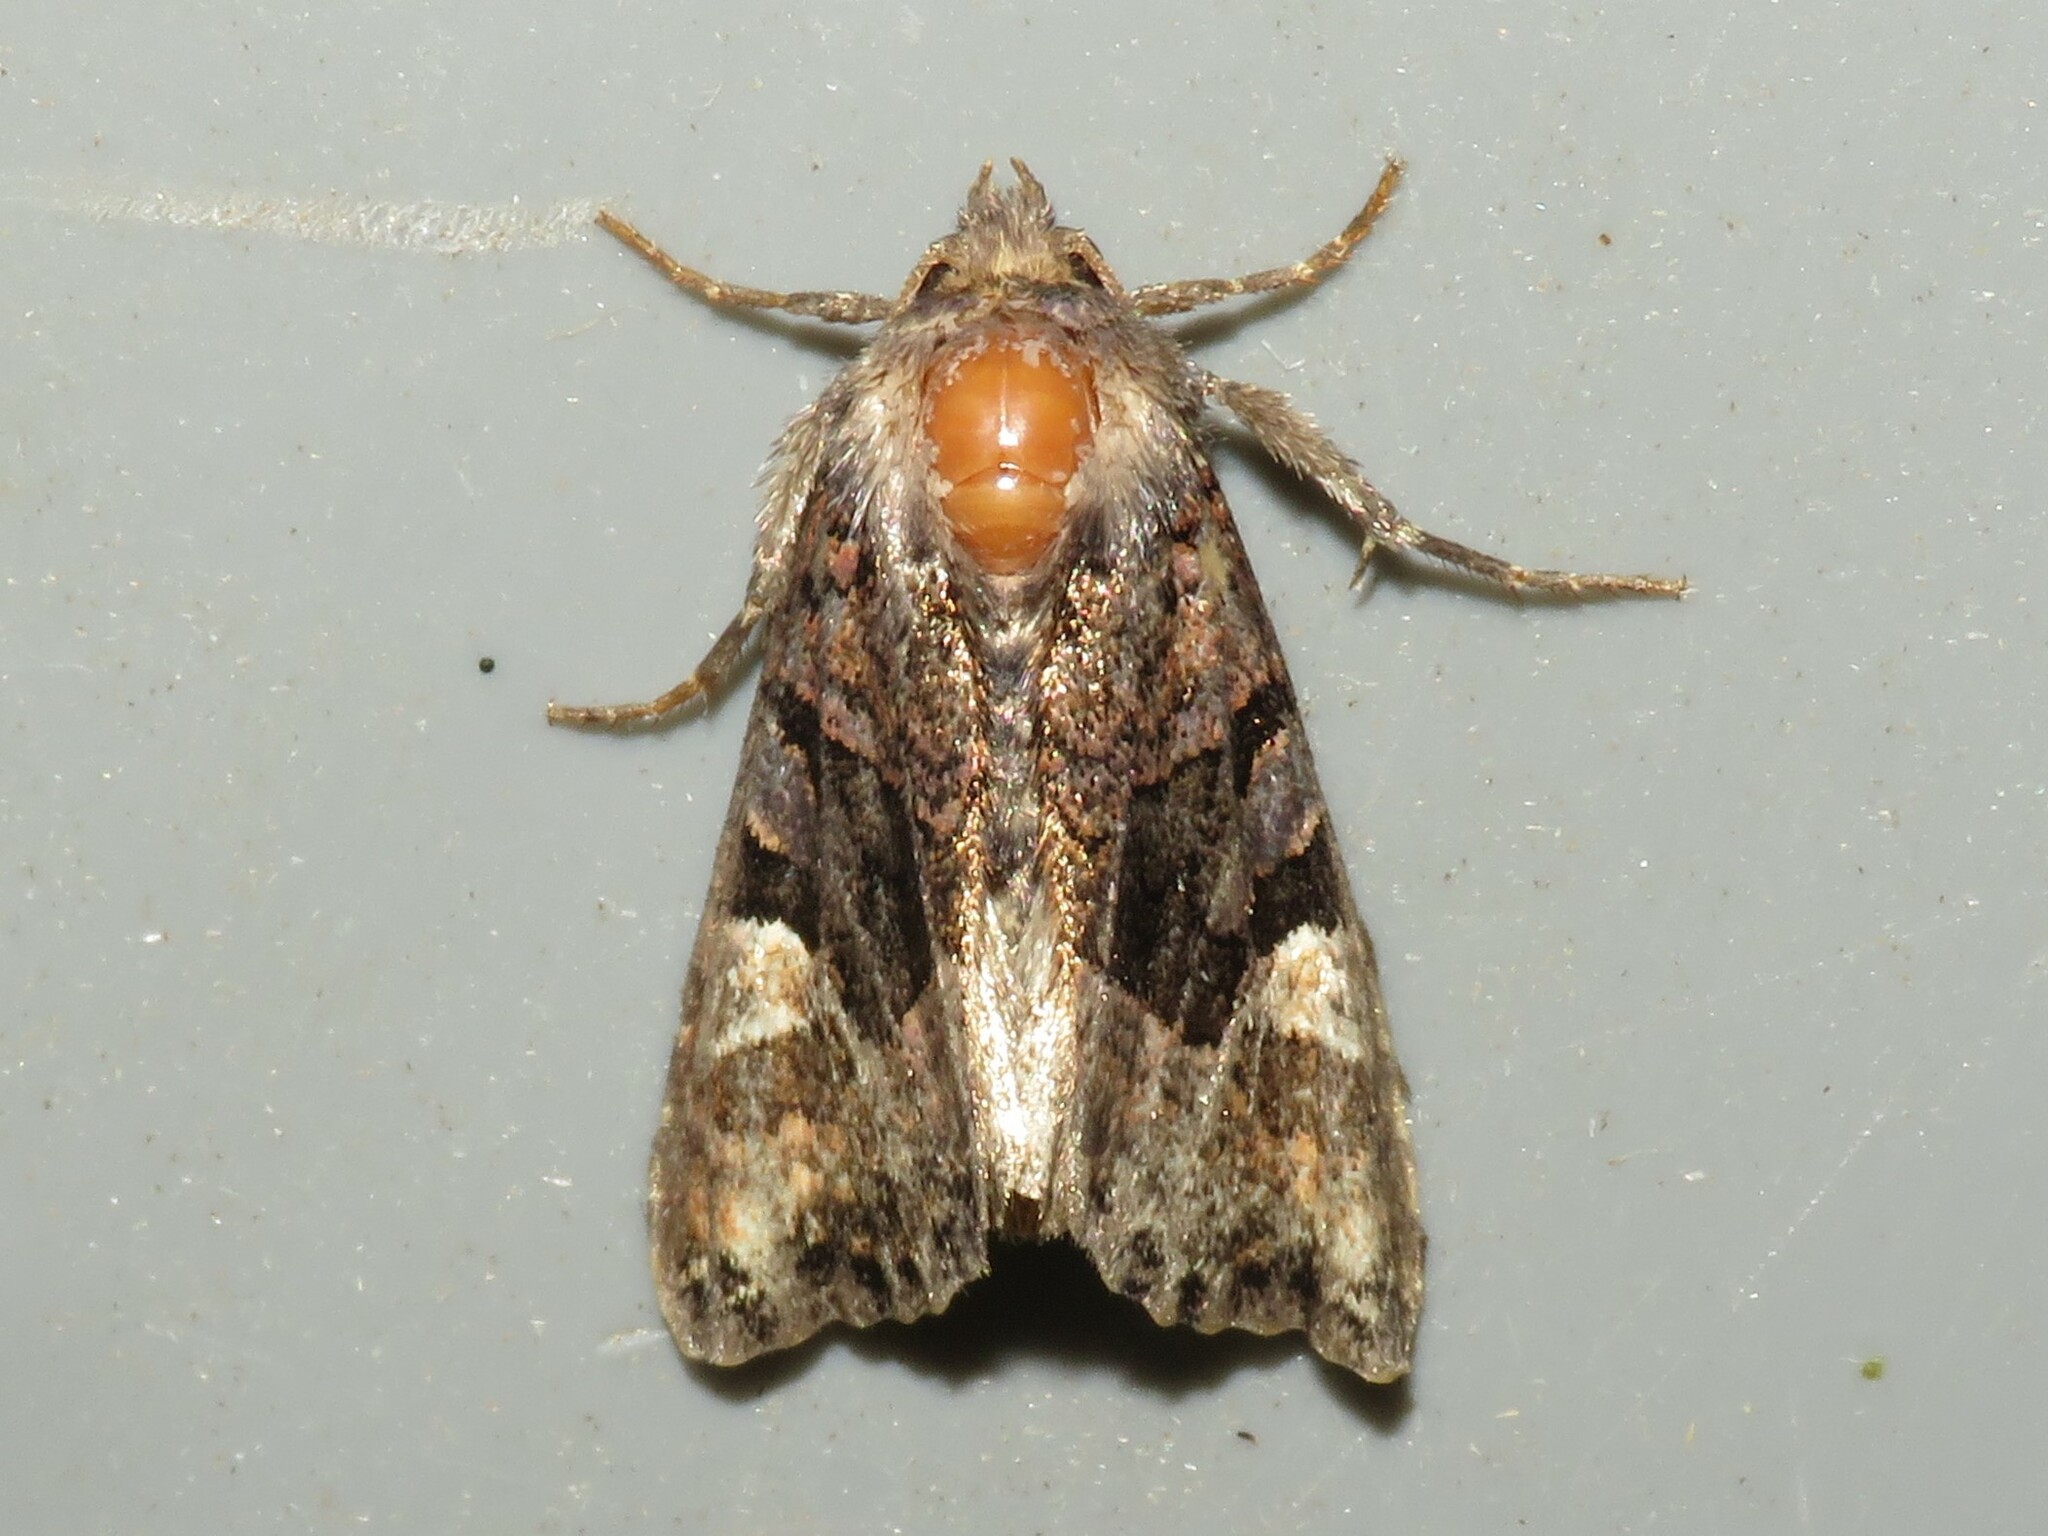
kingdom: Animalia
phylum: Arthropoda
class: Insecta
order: Lepidoptera
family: Noctuidae
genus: Euplexia
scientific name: Euplexia benesimilis
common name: American angle shades
